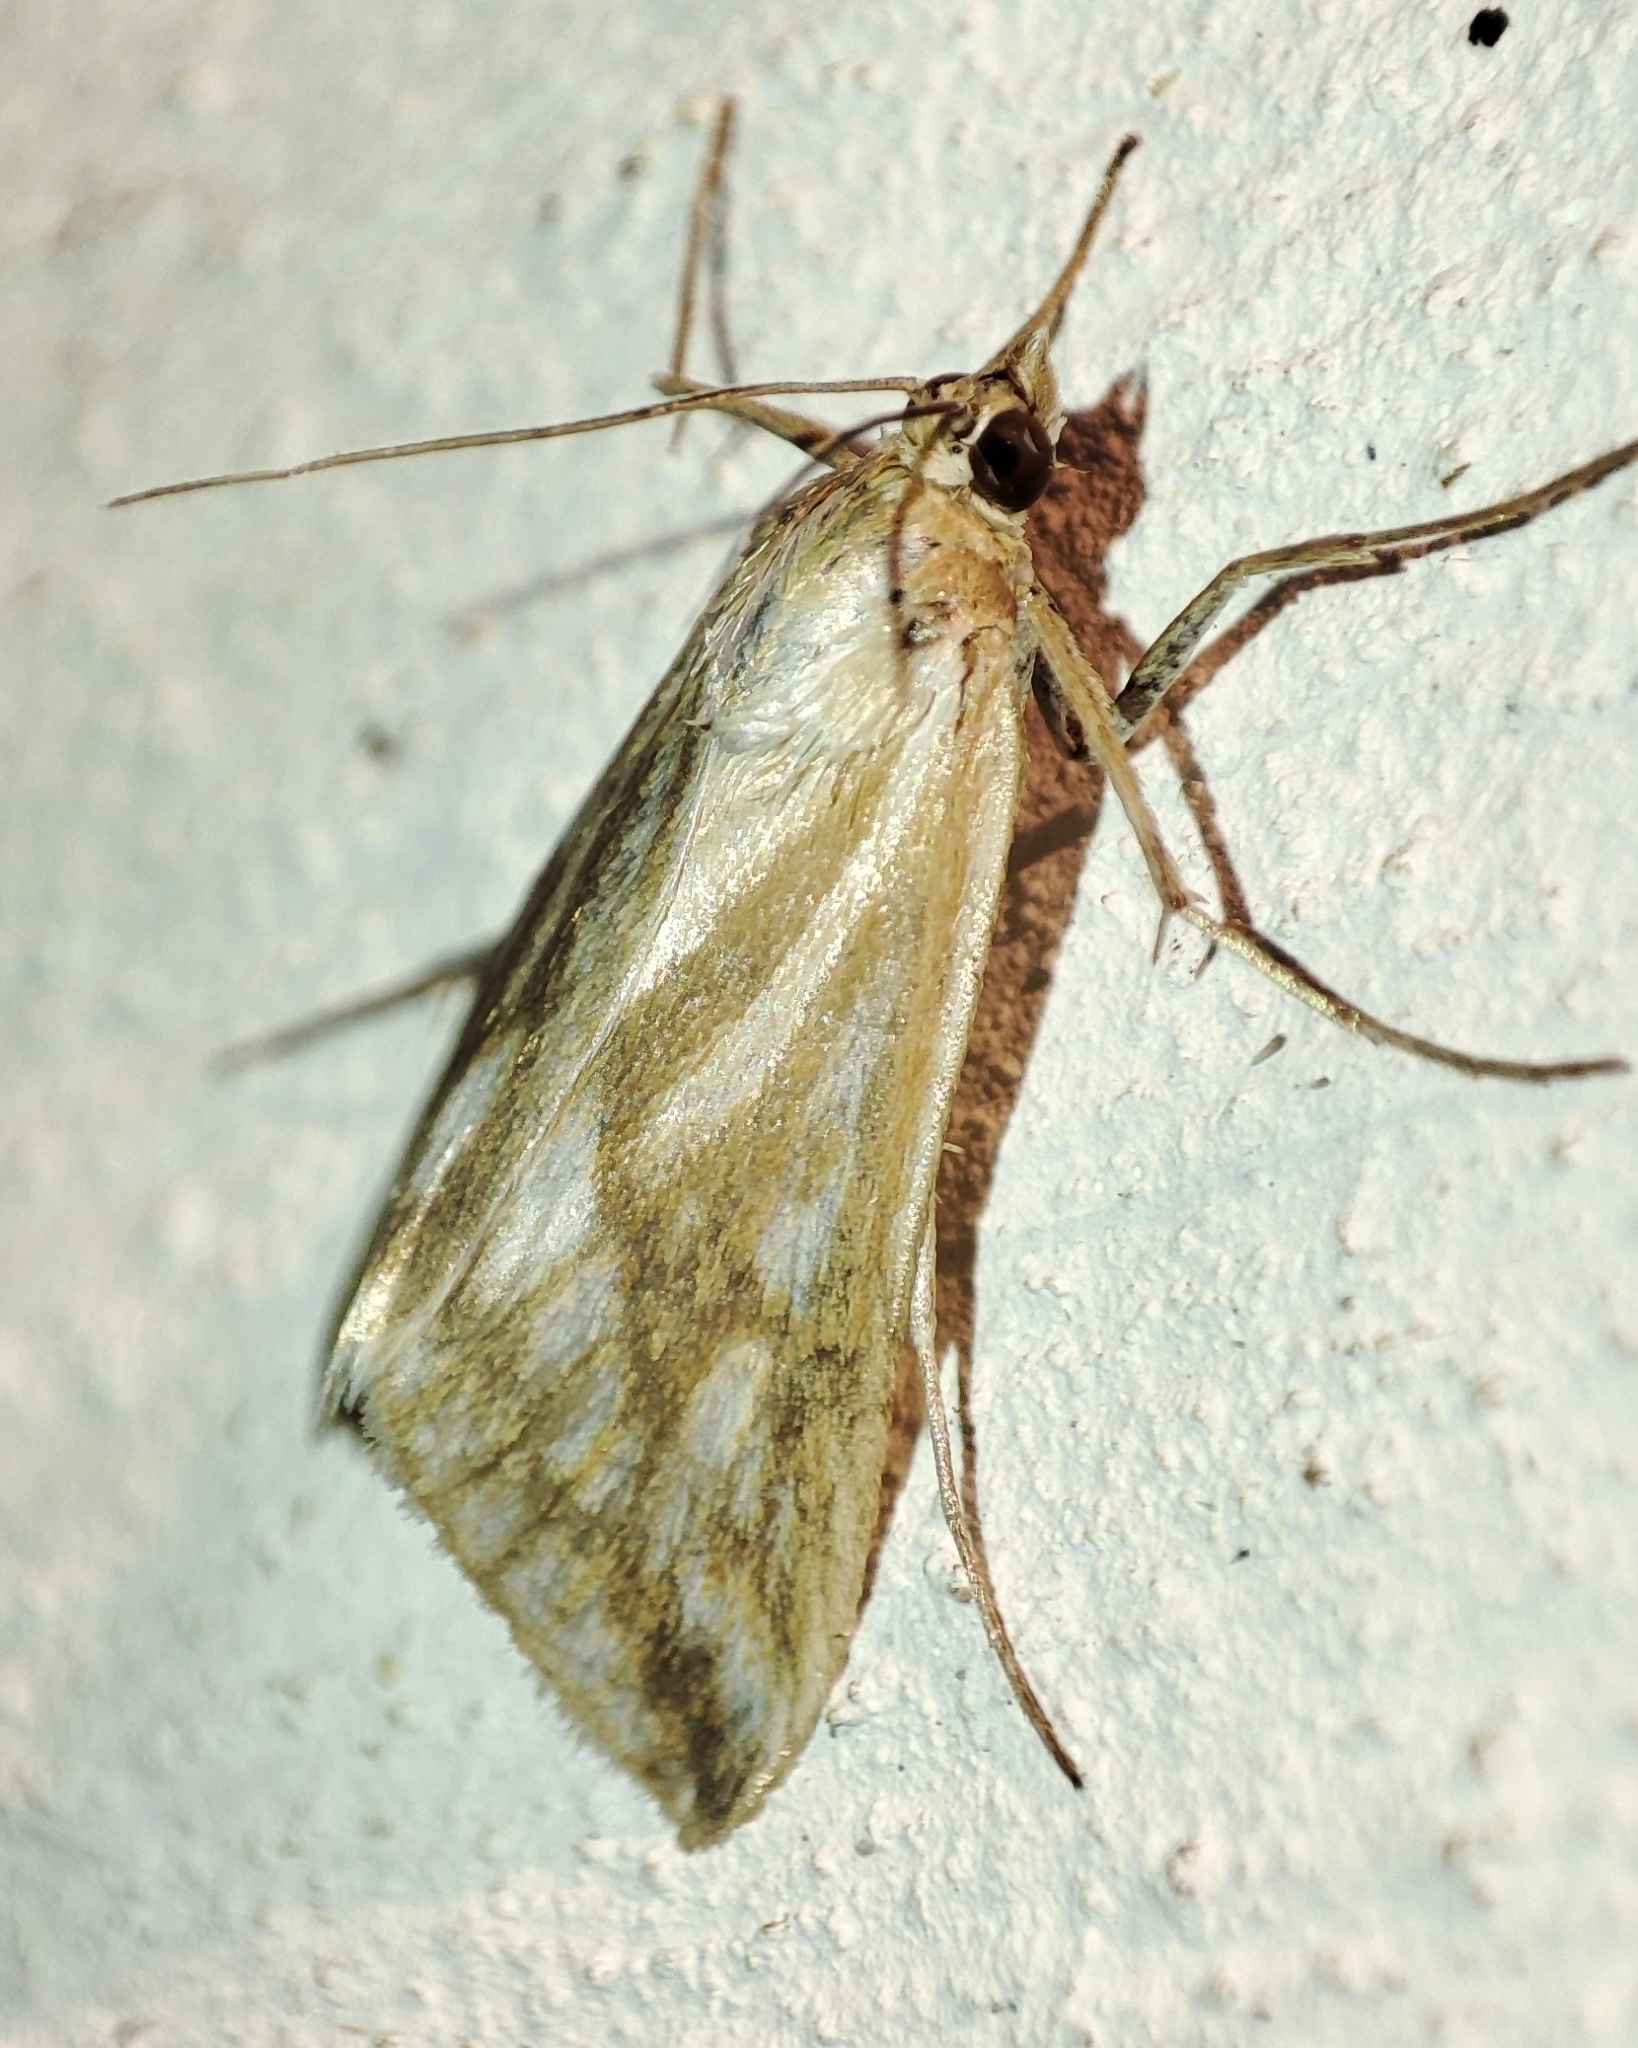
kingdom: Animalia
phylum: Arthropoda
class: Insecta
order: Lepidoptera
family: Crambidae
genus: Loxostege
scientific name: Loxostege virescalis
